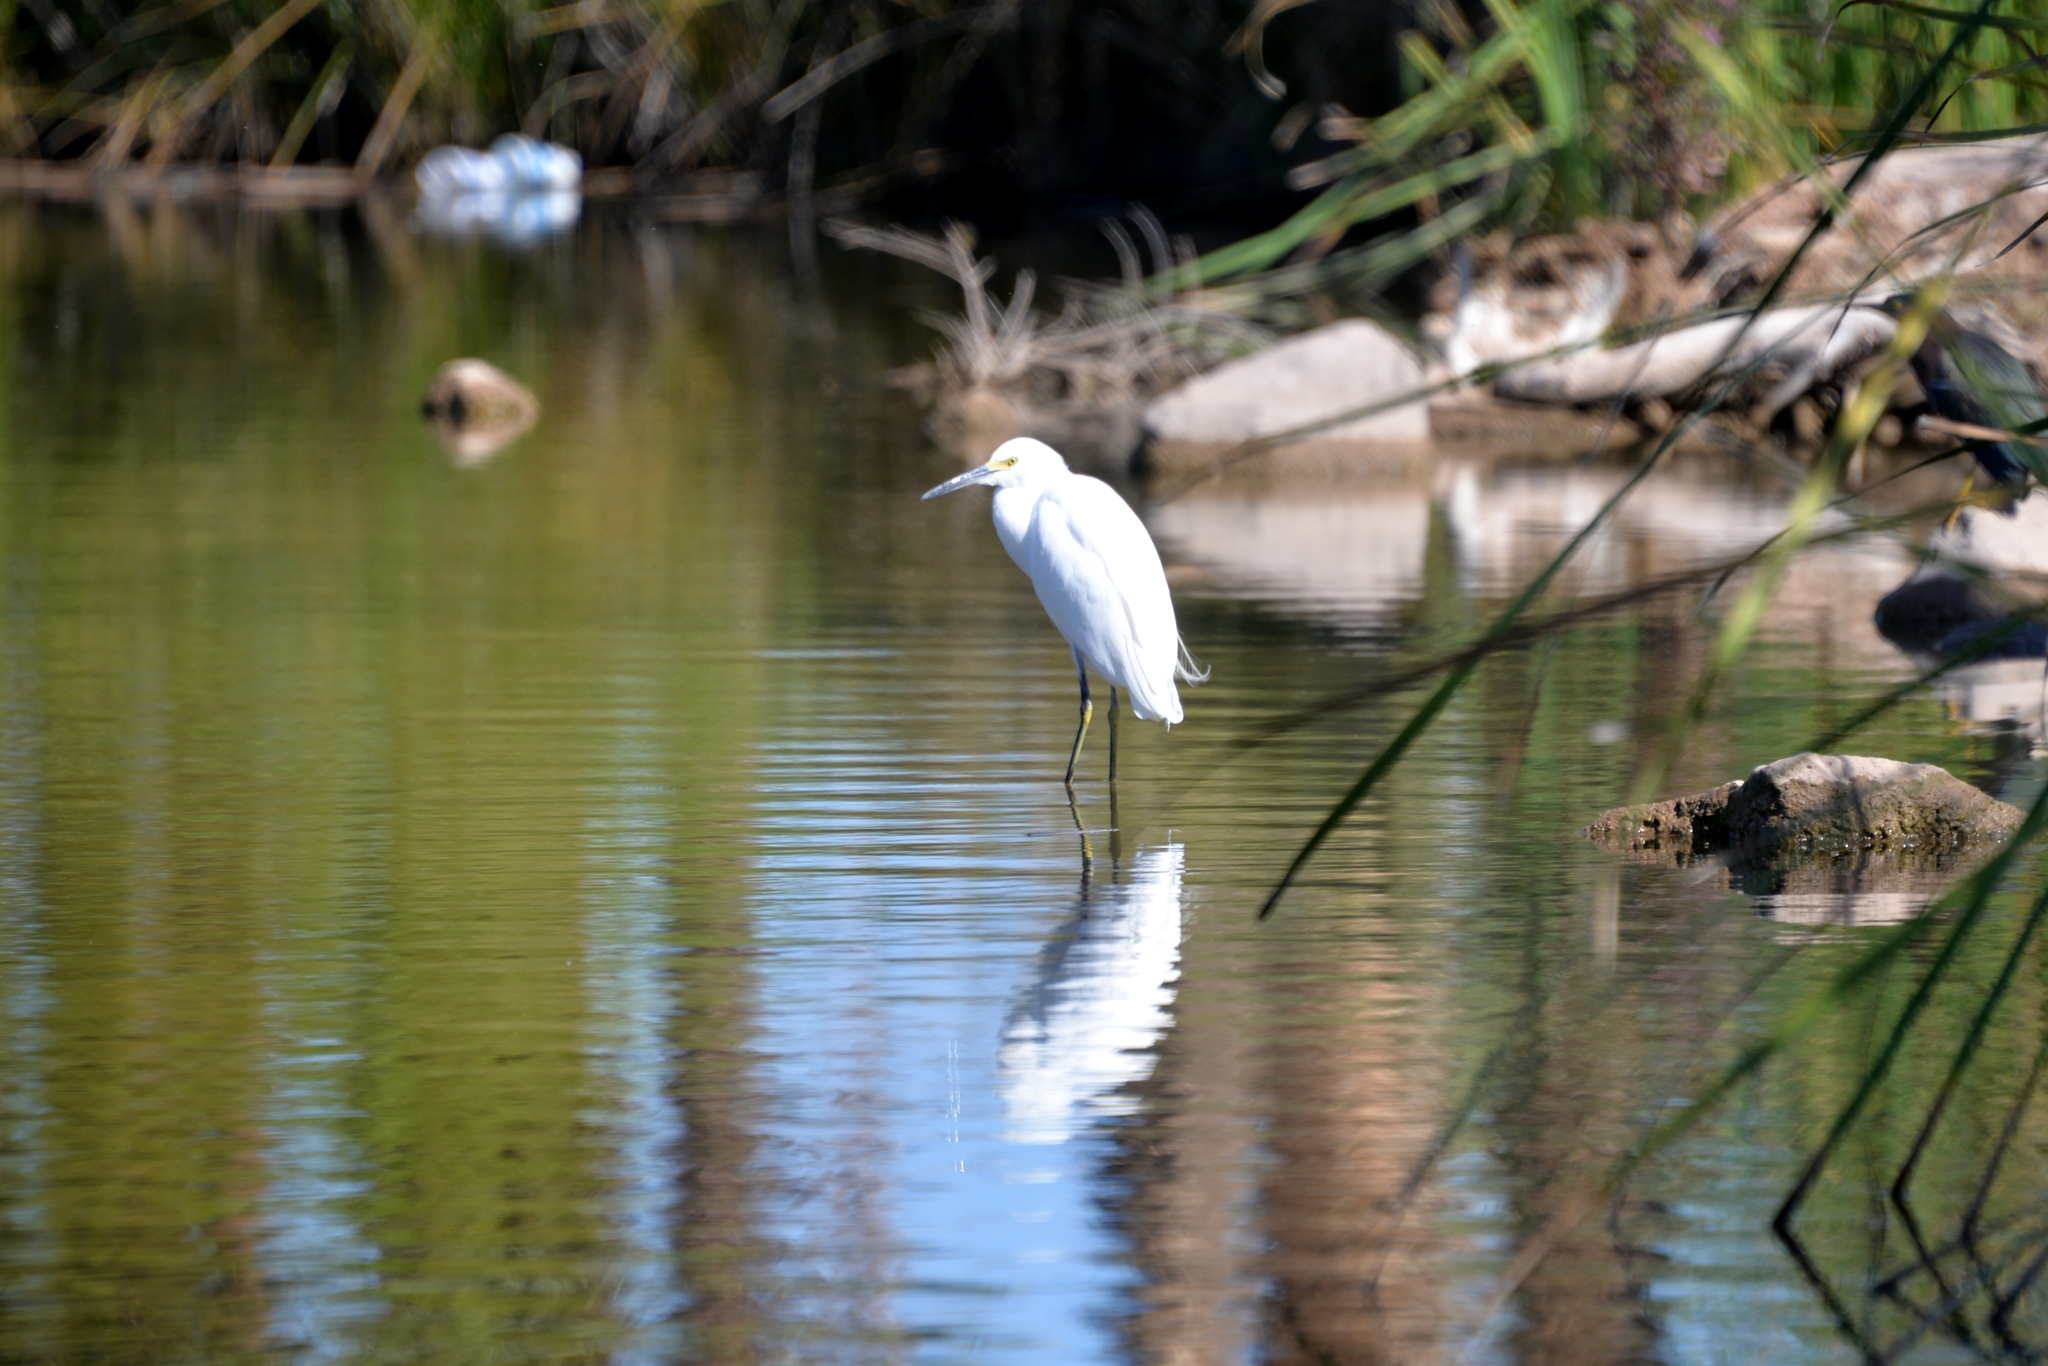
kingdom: Animalia
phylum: Chordata
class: Aves
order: Pelecaniformes
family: Ardeidae
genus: Egretta
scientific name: Egretta thula
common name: Snowy egret
